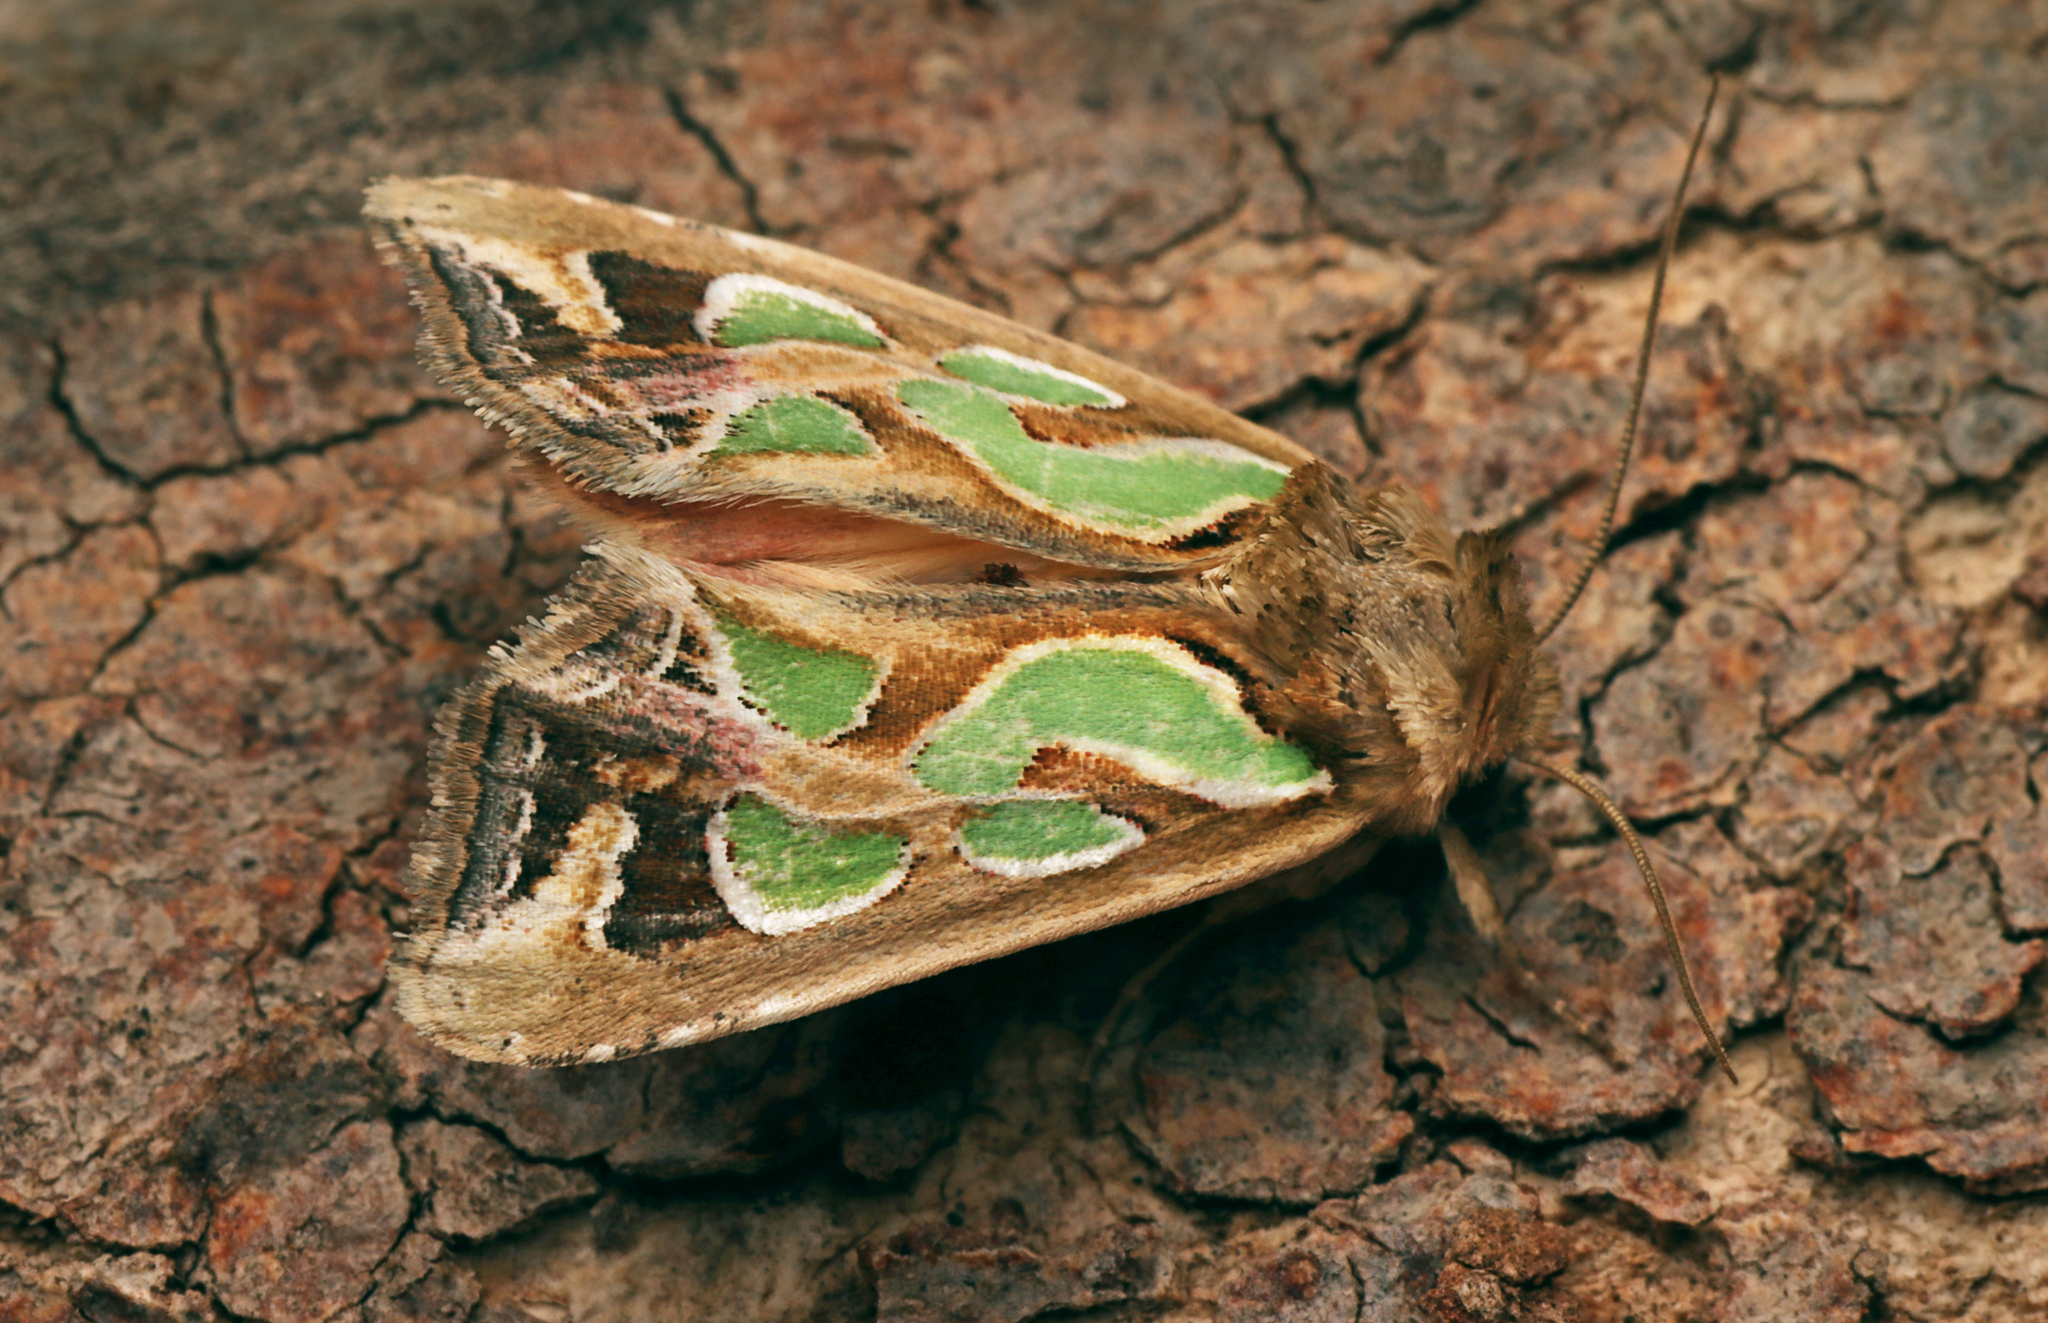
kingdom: Animalia
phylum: Arthropoda
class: Insecta
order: Lepidoptera
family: Noctuidae
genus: Cosmodes
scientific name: Cosmodes elegans
